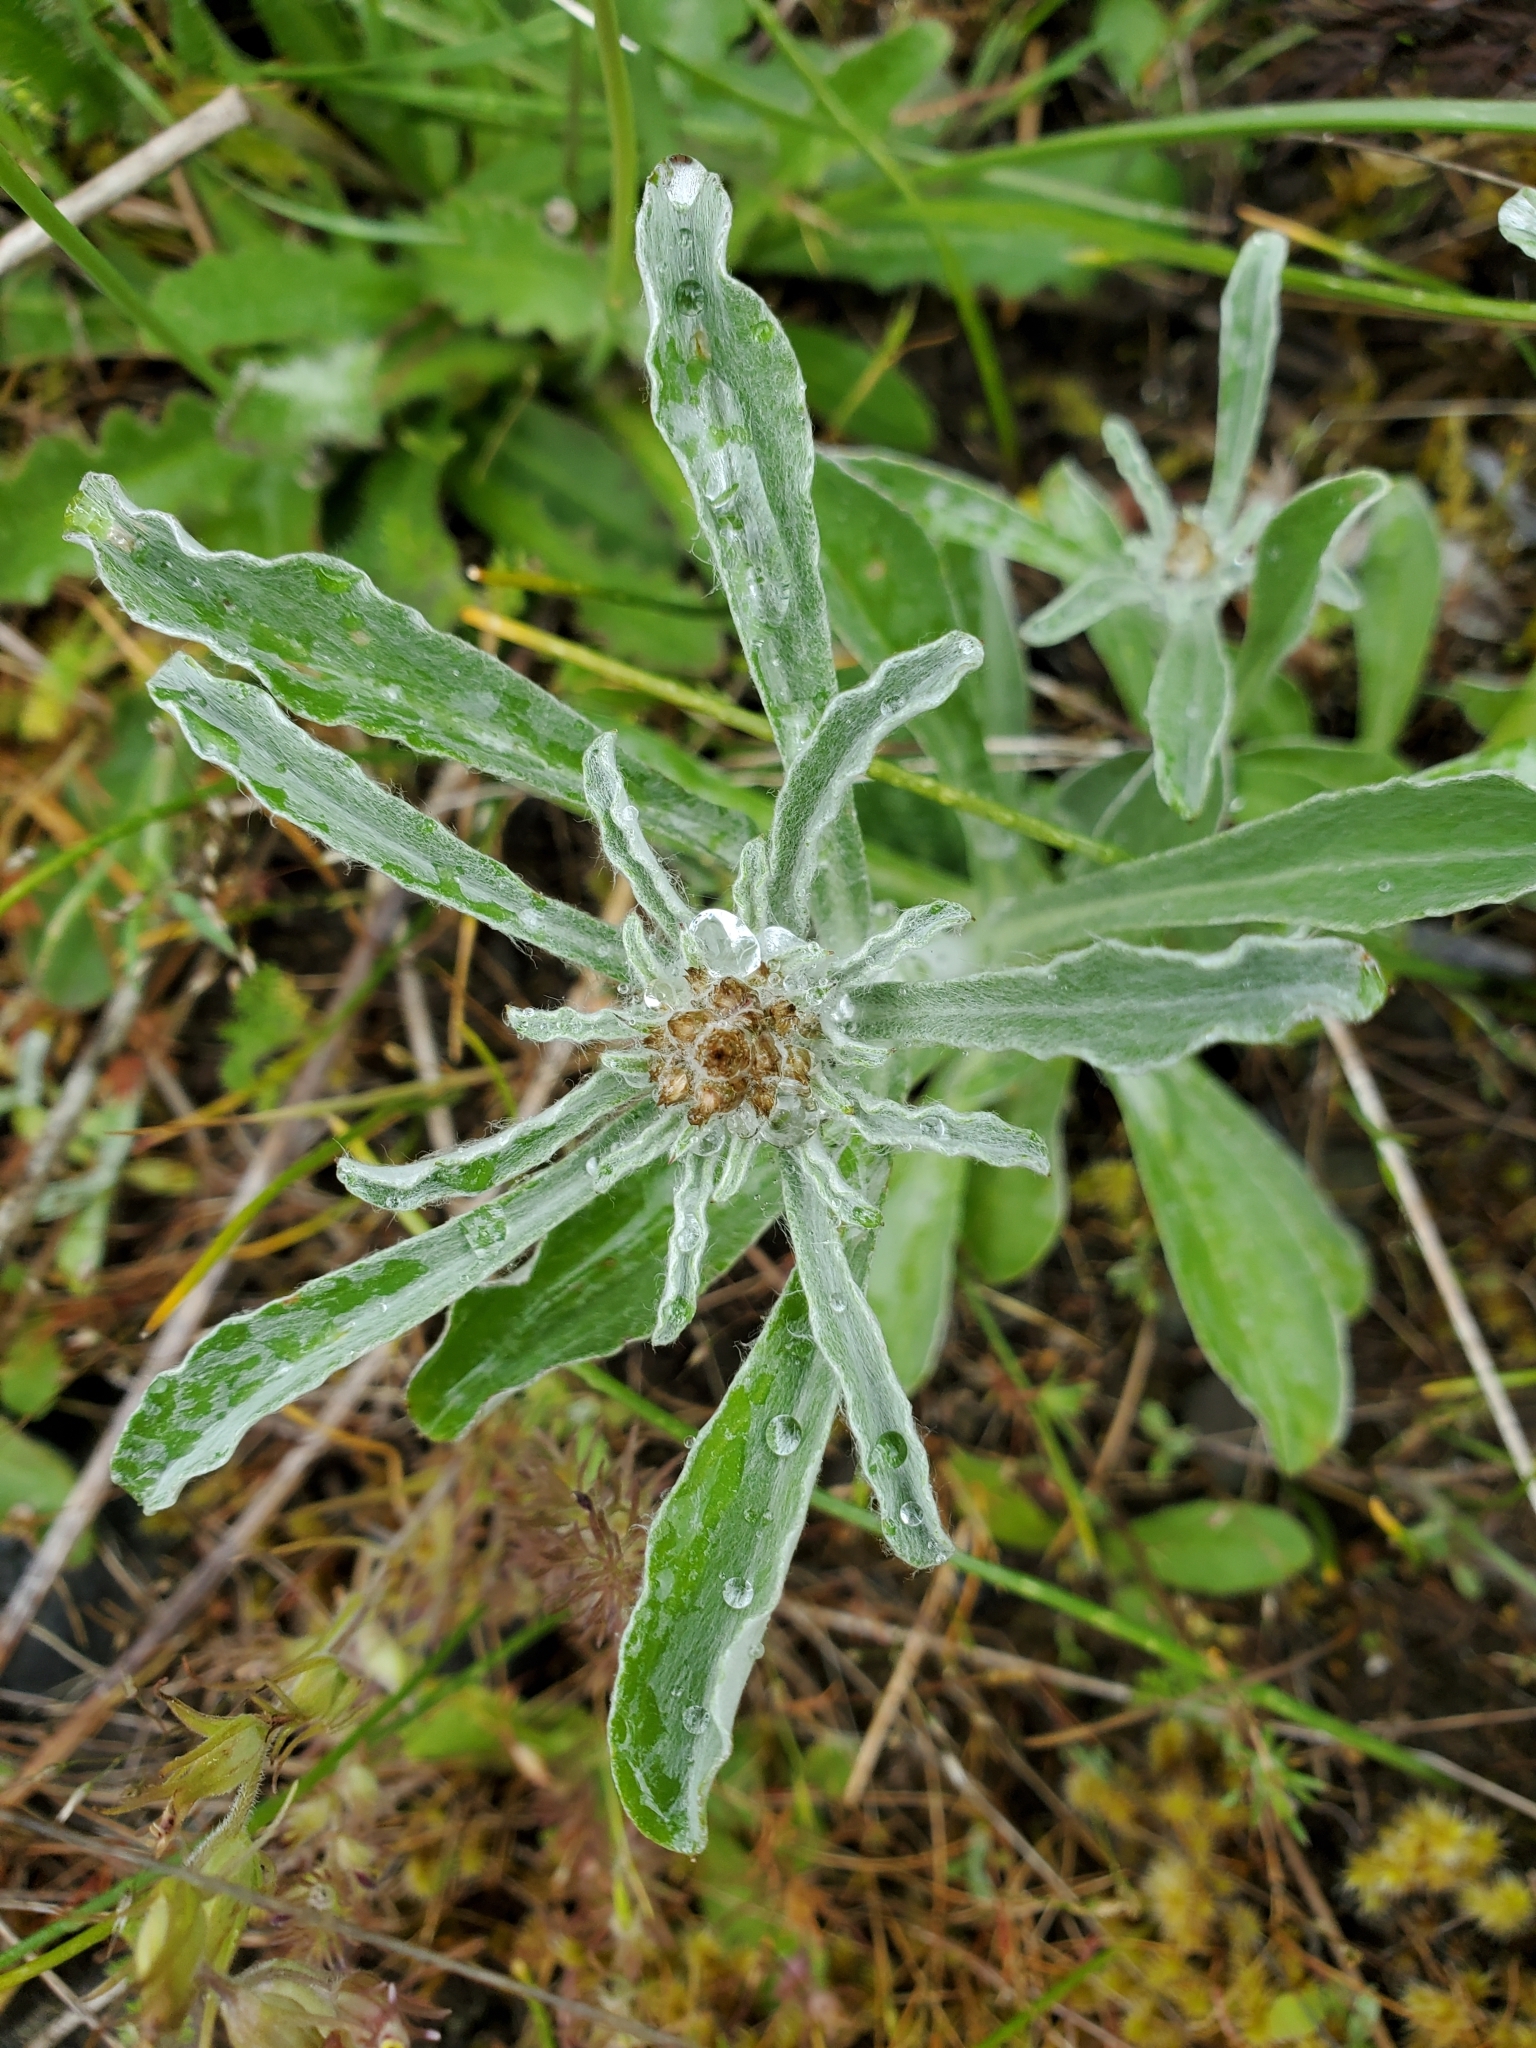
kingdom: Plantae
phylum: Tracheophyta
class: Magnoliopsida
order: Asterales
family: Asteraceae
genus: Gamochaeta
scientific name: Gamochaeta ustulata
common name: Pacific cudweed
